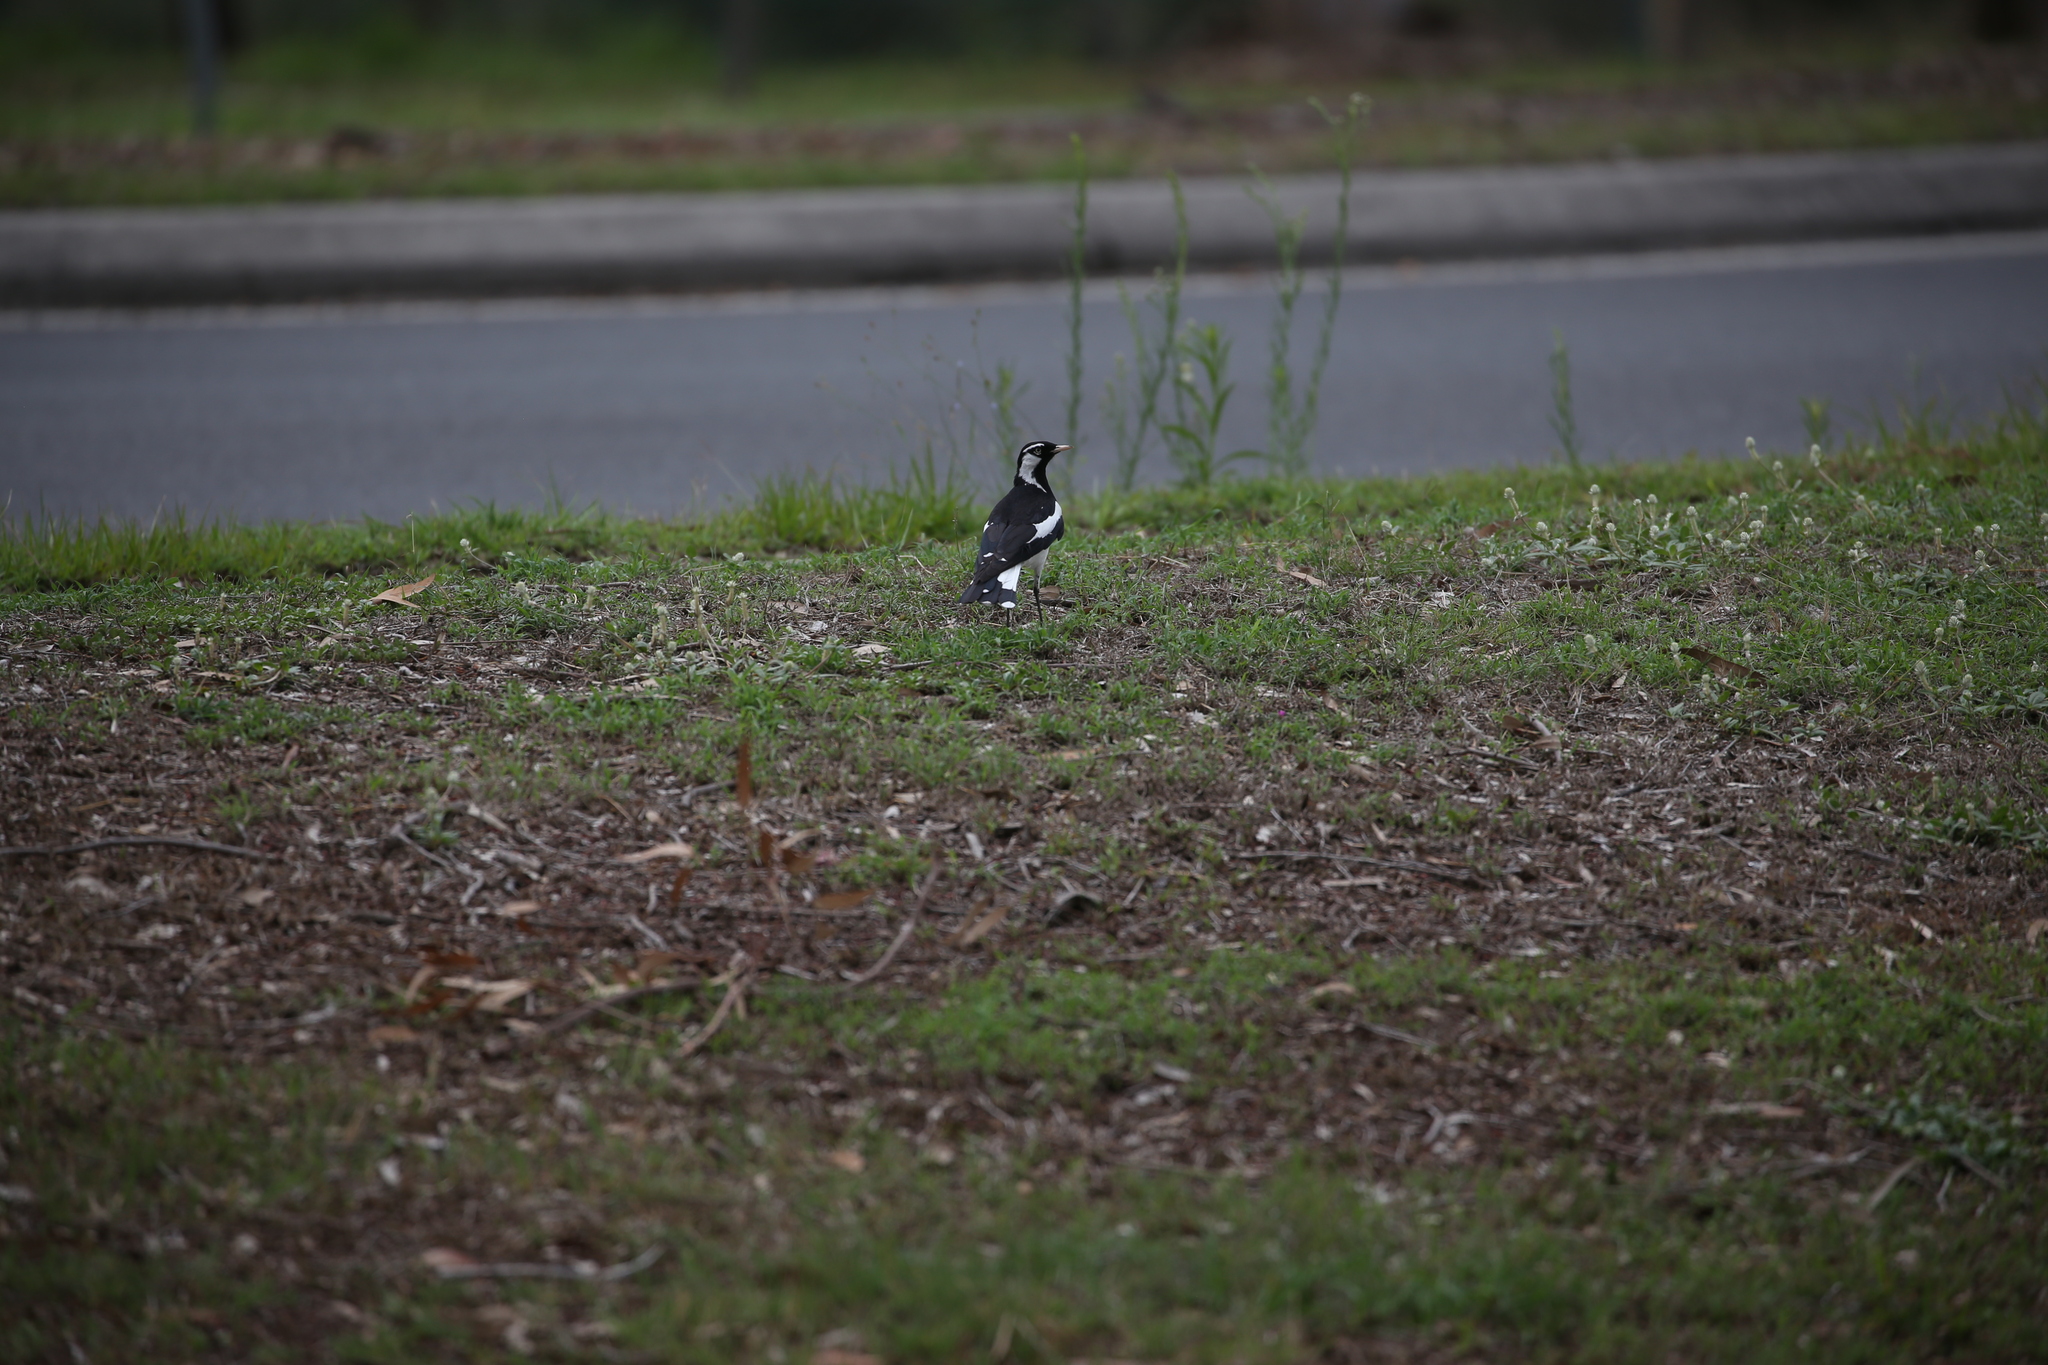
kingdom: Animalia
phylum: Chordata
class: Aves
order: Passeriformes
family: Monarchidae
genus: Grallina
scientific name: Grallina cyanoleuca
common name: Magpie-lark
